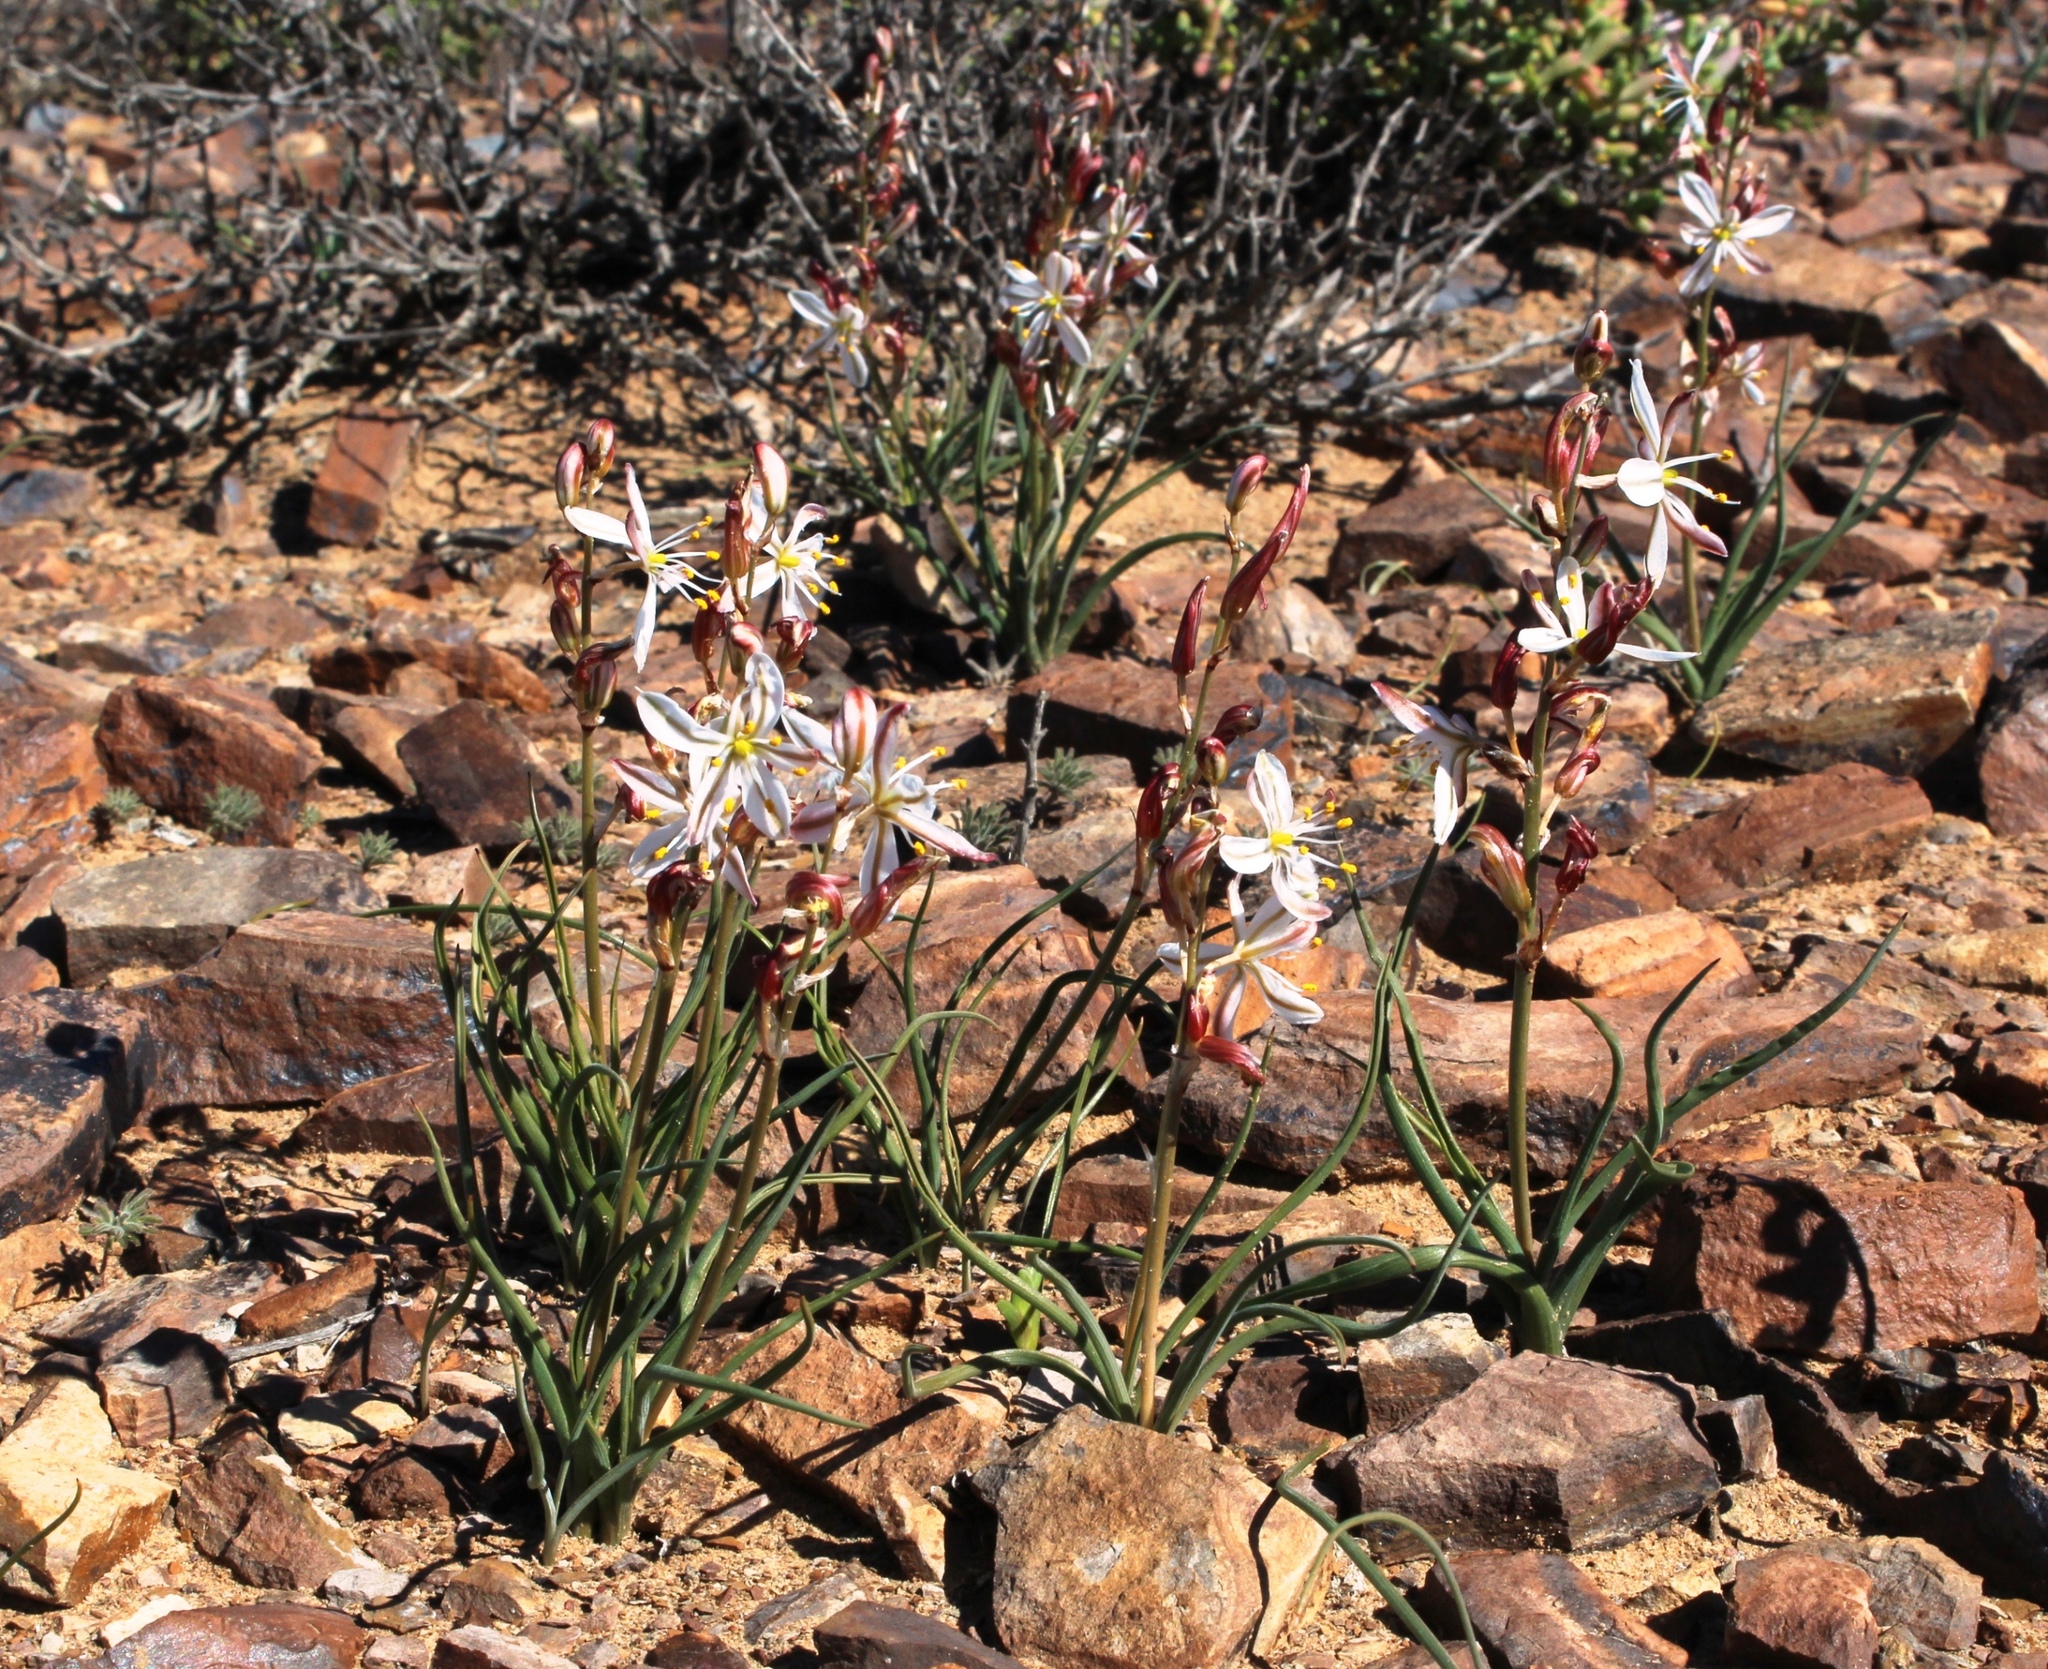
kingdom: Plantae
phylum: Tracheophyta
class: Liliopsida
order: Asparagales
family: Asparagaceae
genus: Chlorophytum
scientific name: Chlorophytum graminifolium
